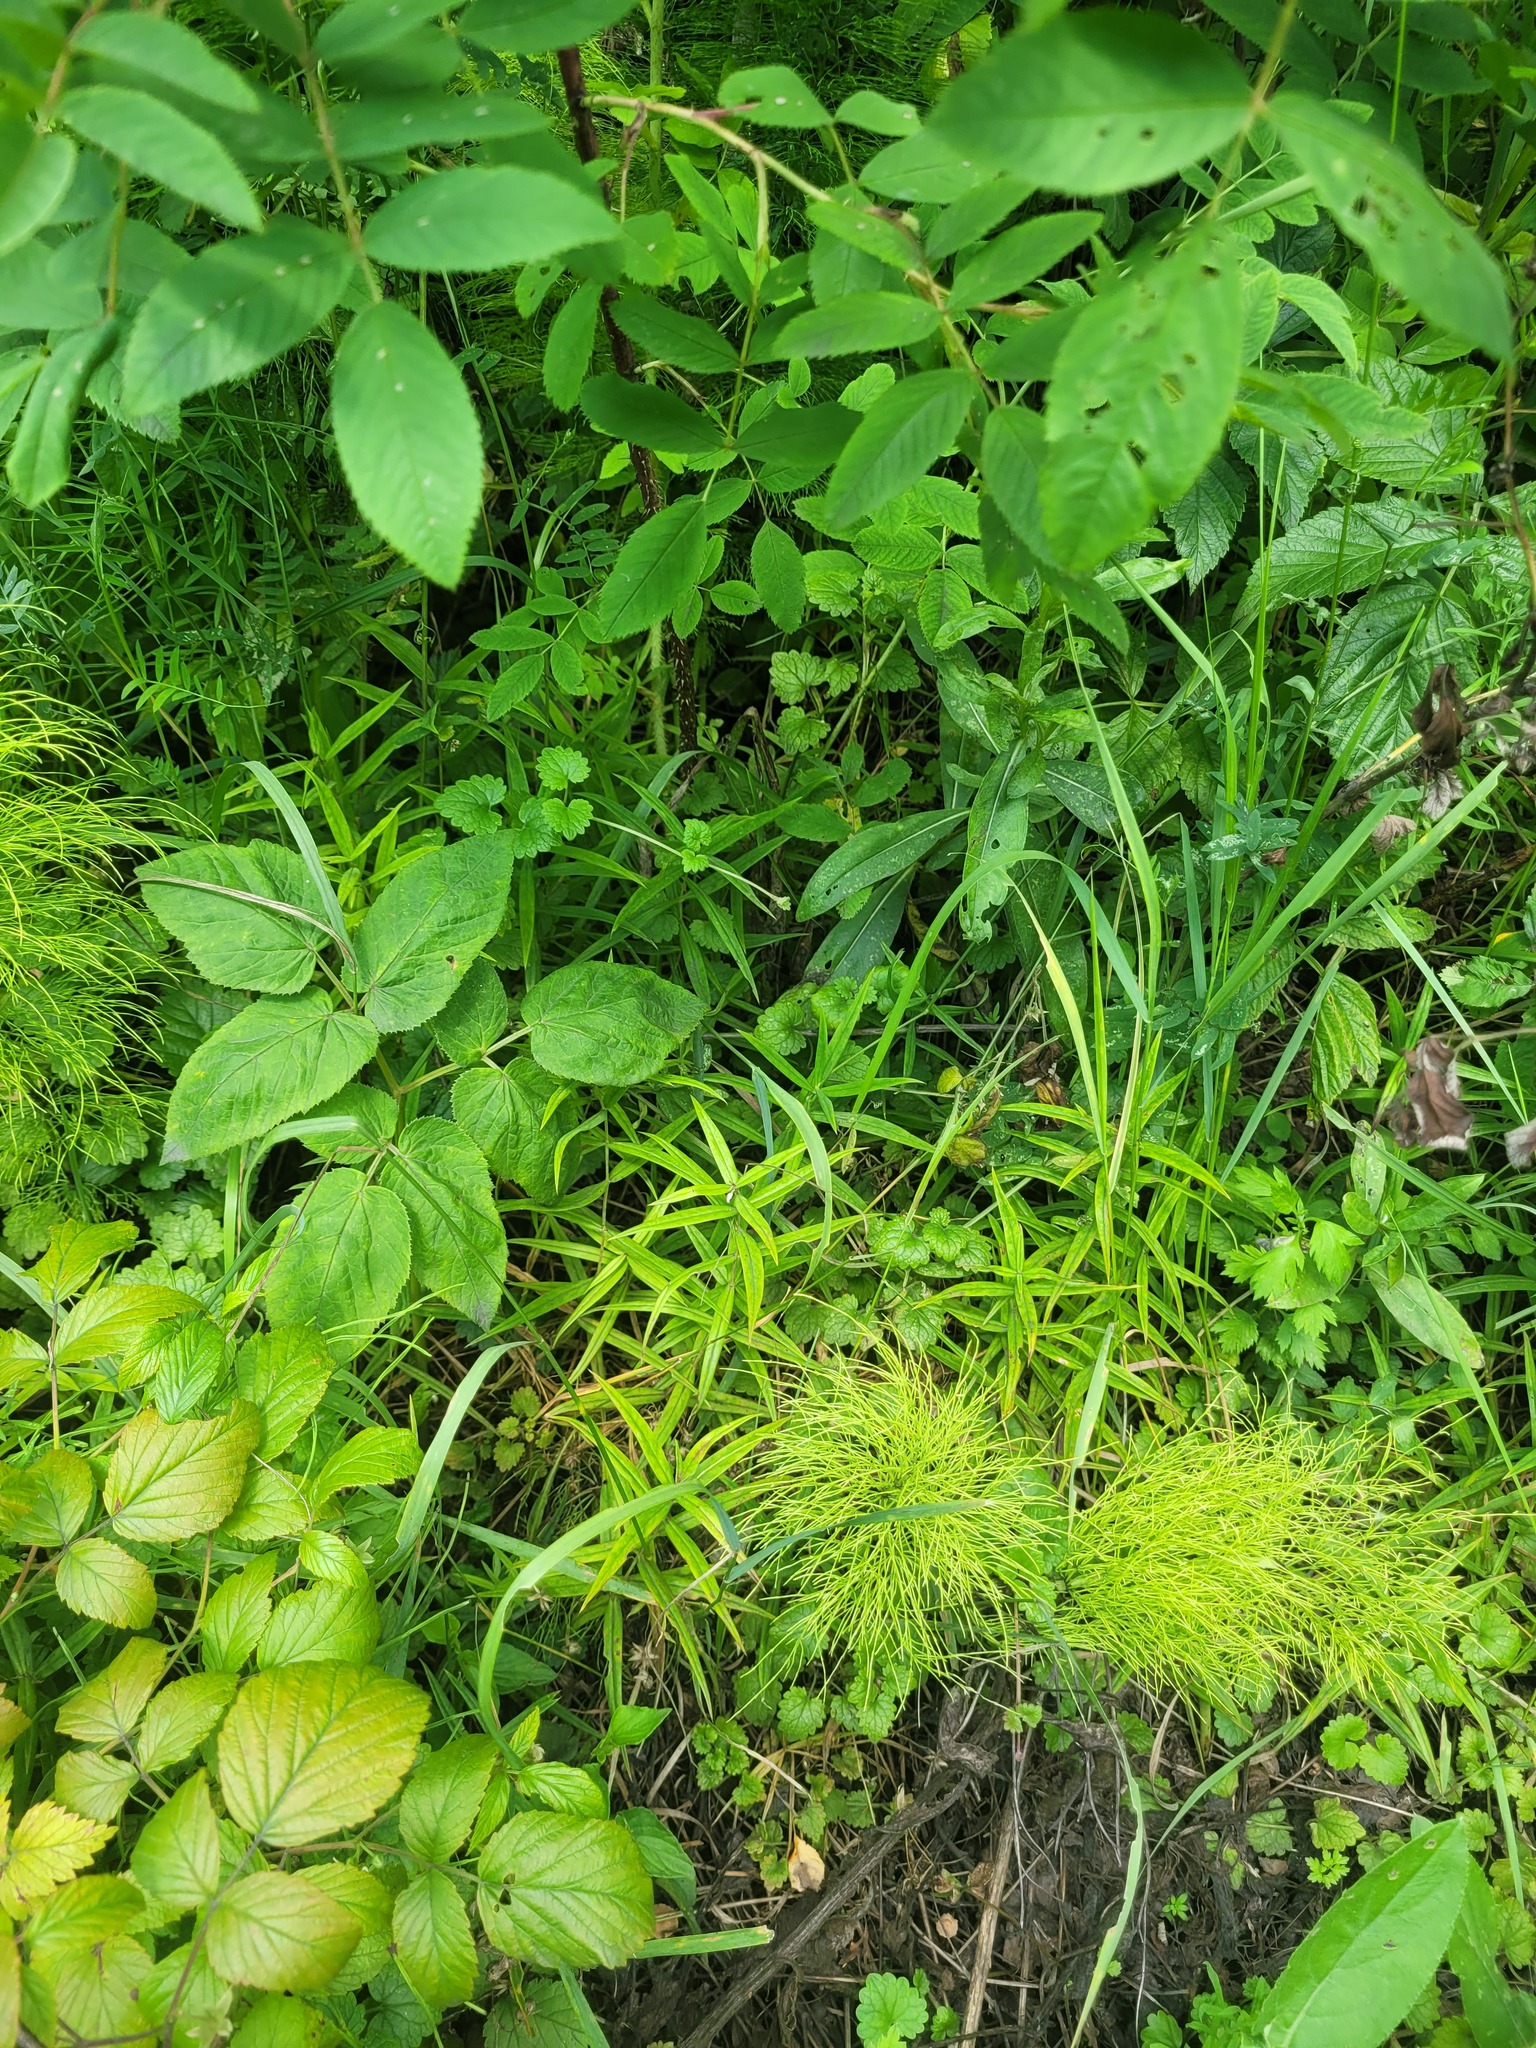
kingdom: Plantae
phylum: Tracheophyta
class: Magnoliopsida
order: Caryophyllales
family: Caryophyllaceae
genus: Rabelera
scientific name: Rabelera holostea
